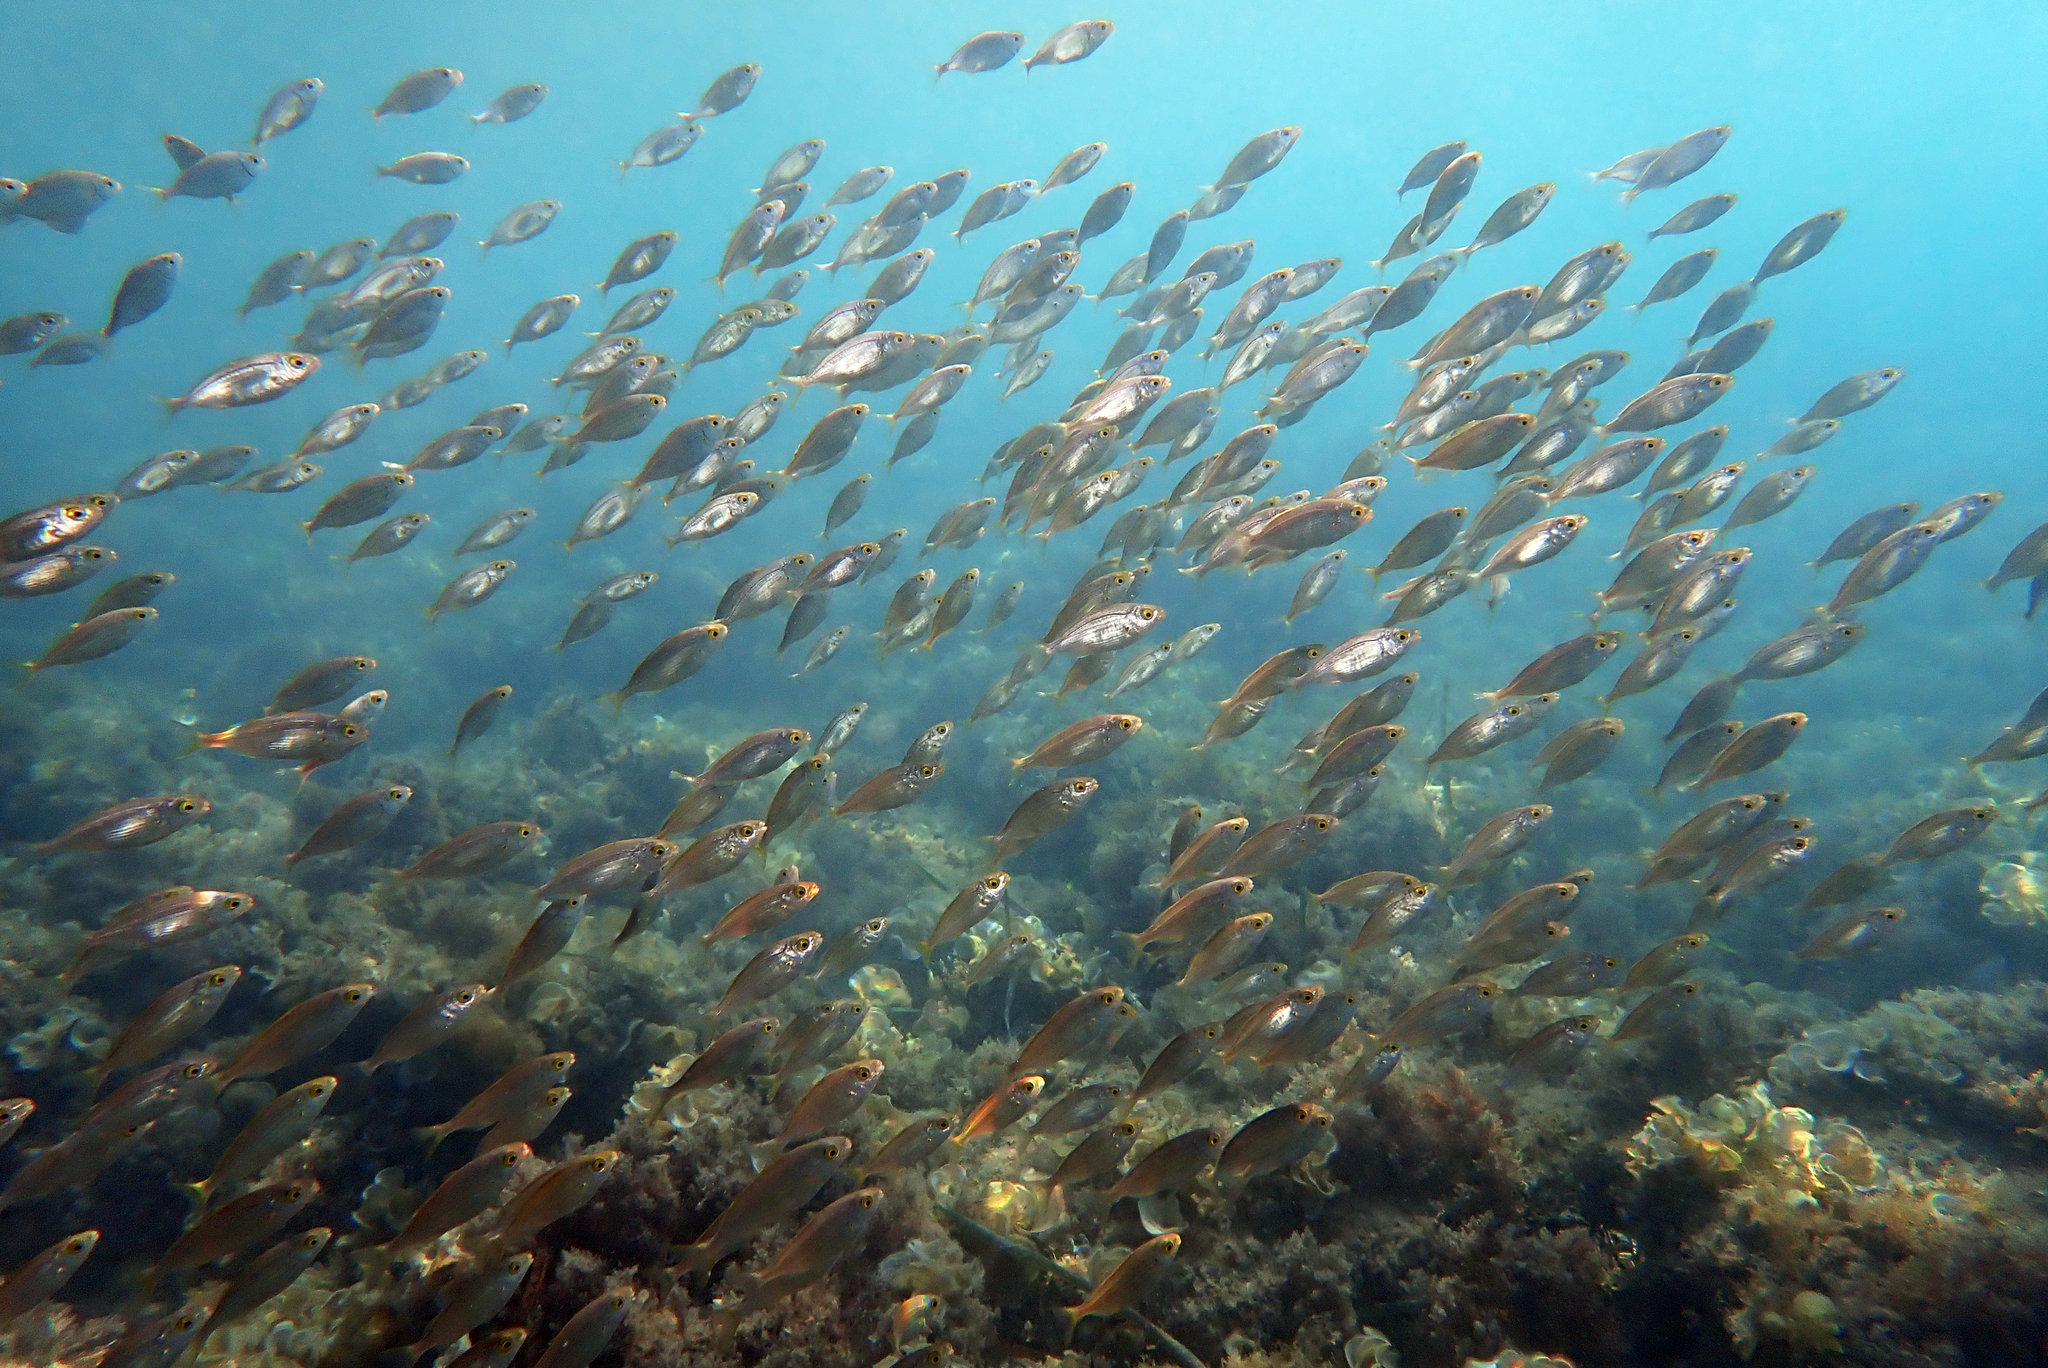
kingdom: Animalia
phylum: Chordata
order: Perciformes
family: Sparidae
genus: Sarpa
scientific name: Sarpa salpa
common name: Salema
